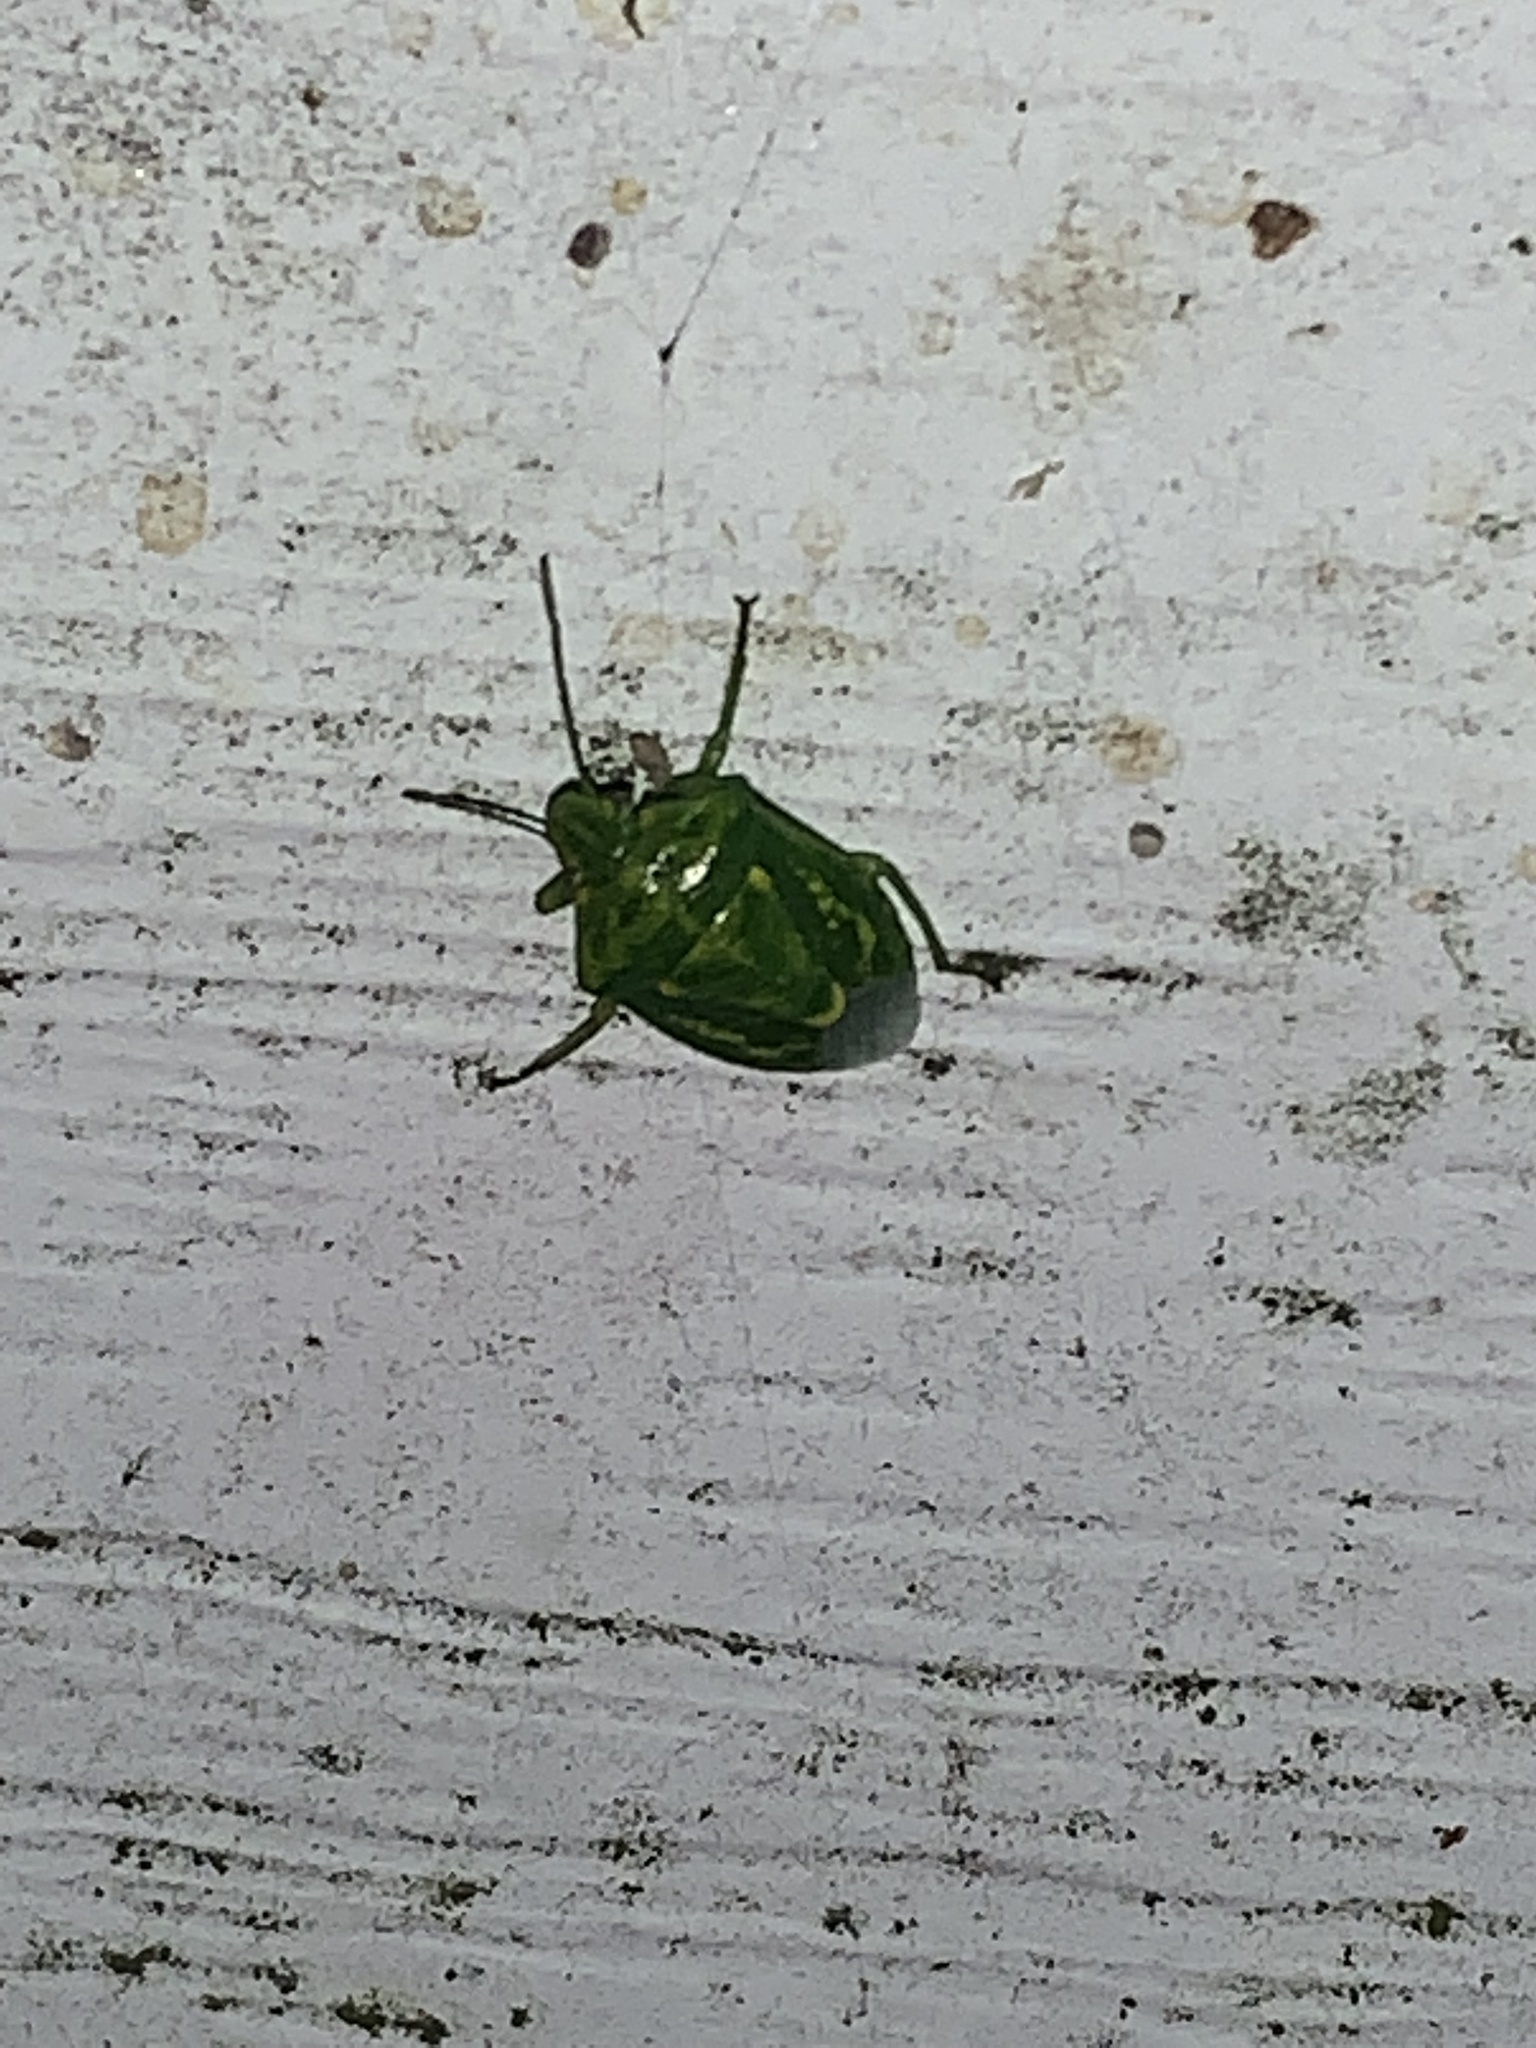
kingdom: Animalia
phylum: Arthropoda
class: Insecta
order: Hemiptera
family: Pentatomidae
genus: Banasa
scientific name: Banasa euchlora
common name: Cedar berry bug
